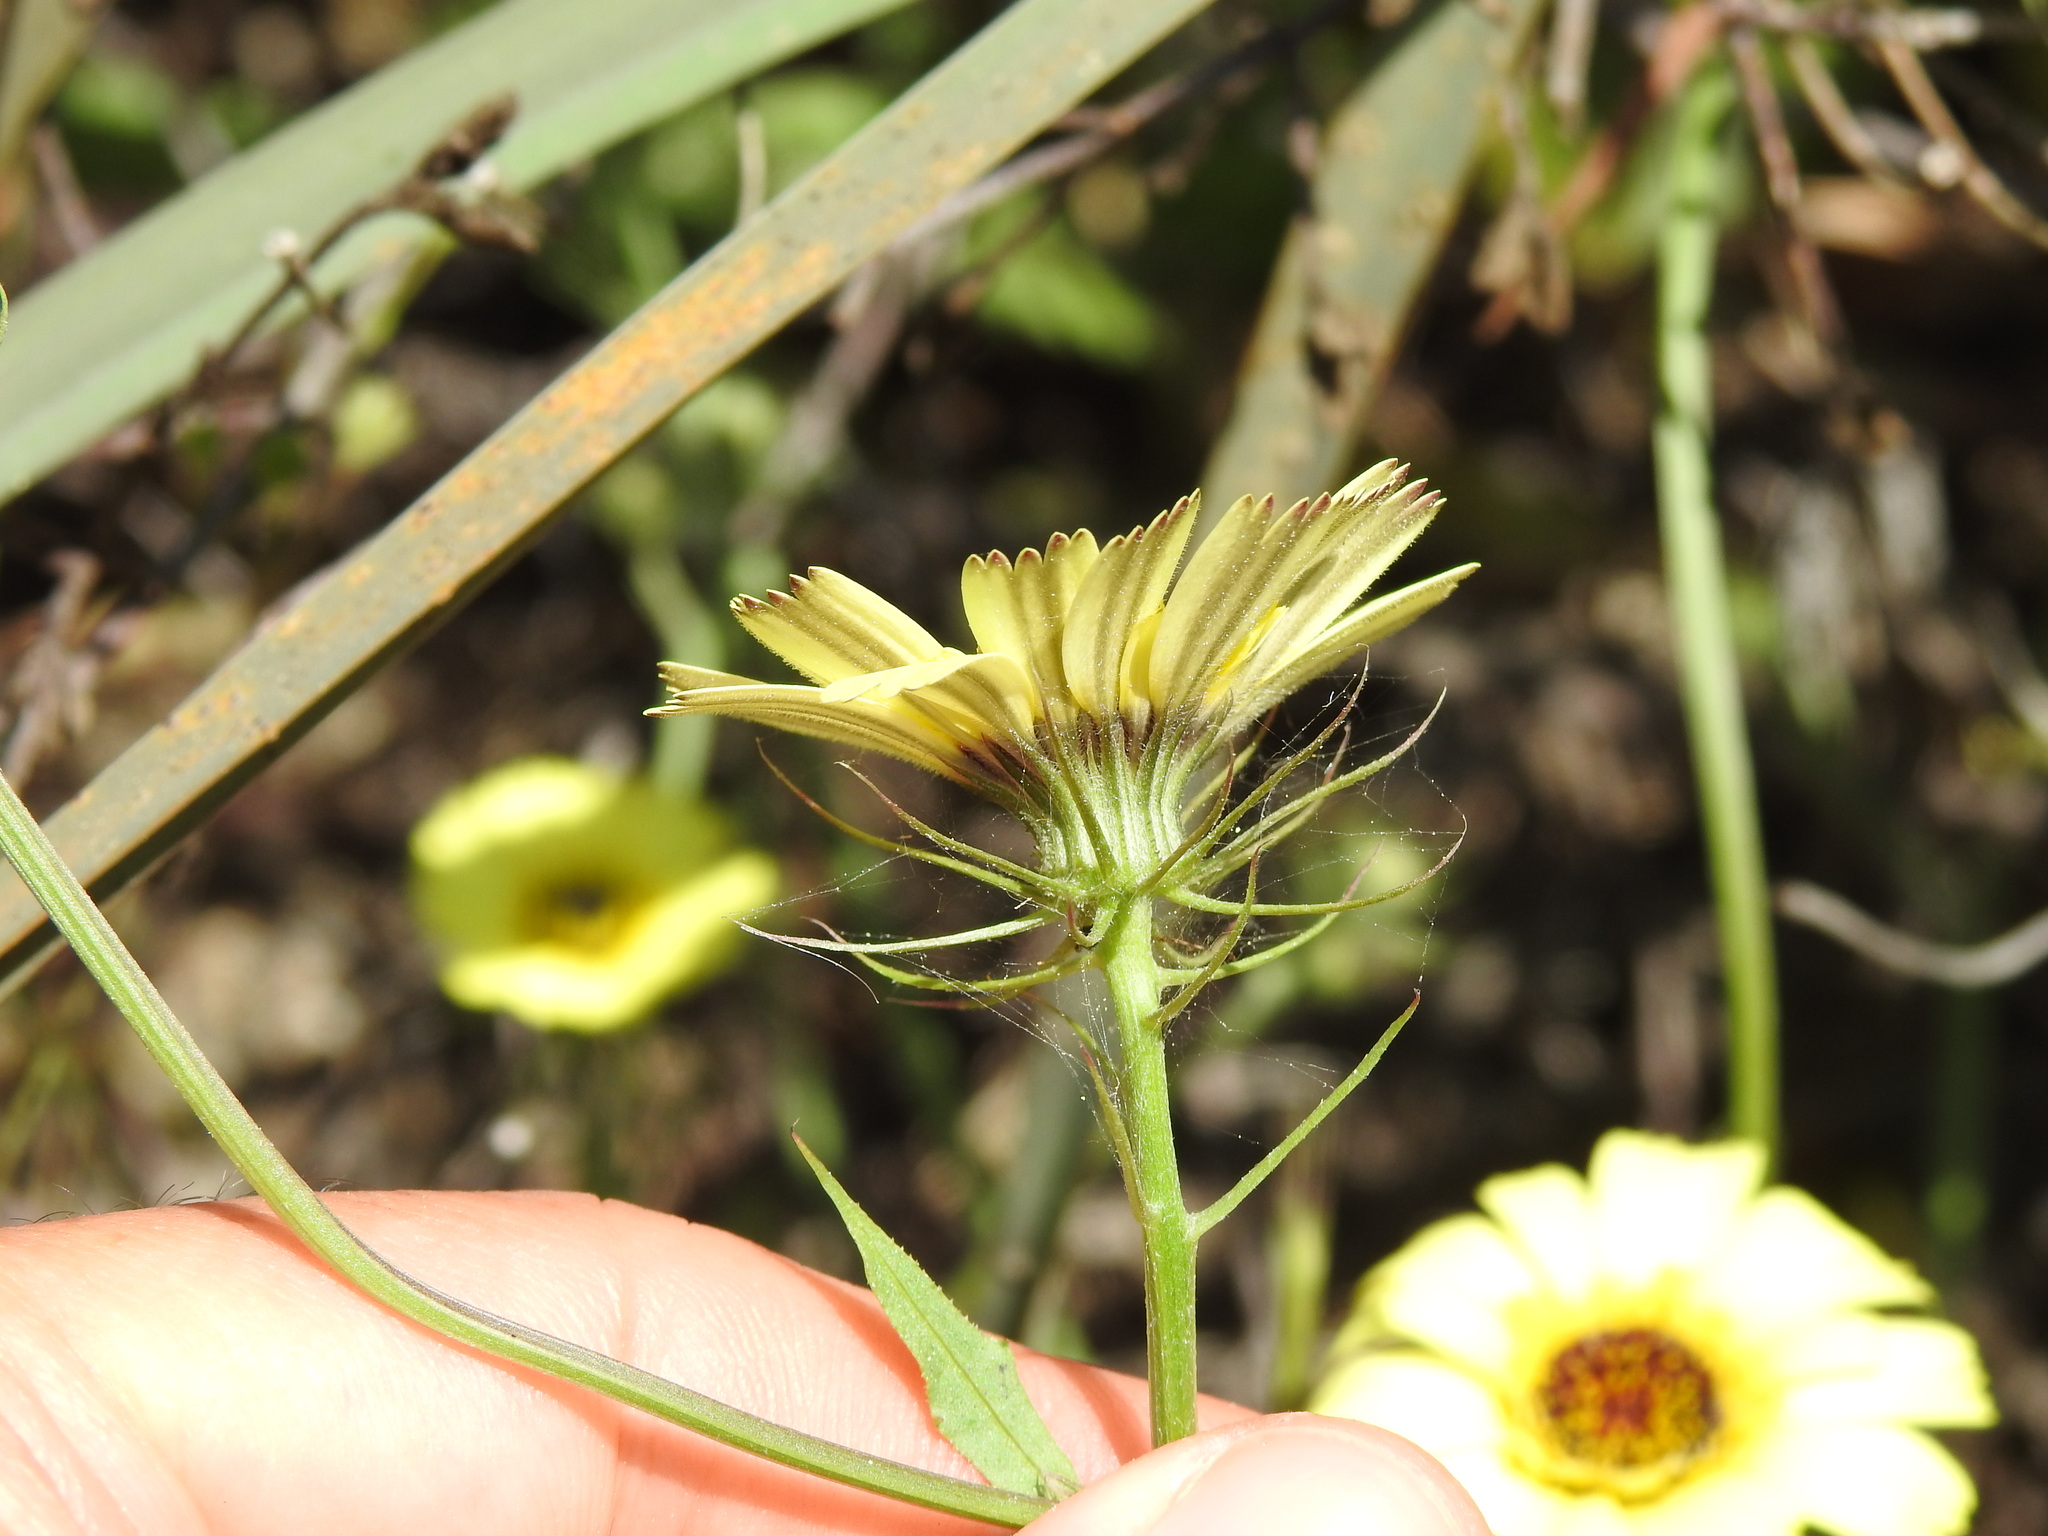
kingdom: Plantae
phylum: Tracheophyta
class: Magnoliopsida
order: Asterales
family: Asteraceae
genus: Tolpis
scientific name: Tolpis barbata
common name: Yellow hawkweed
